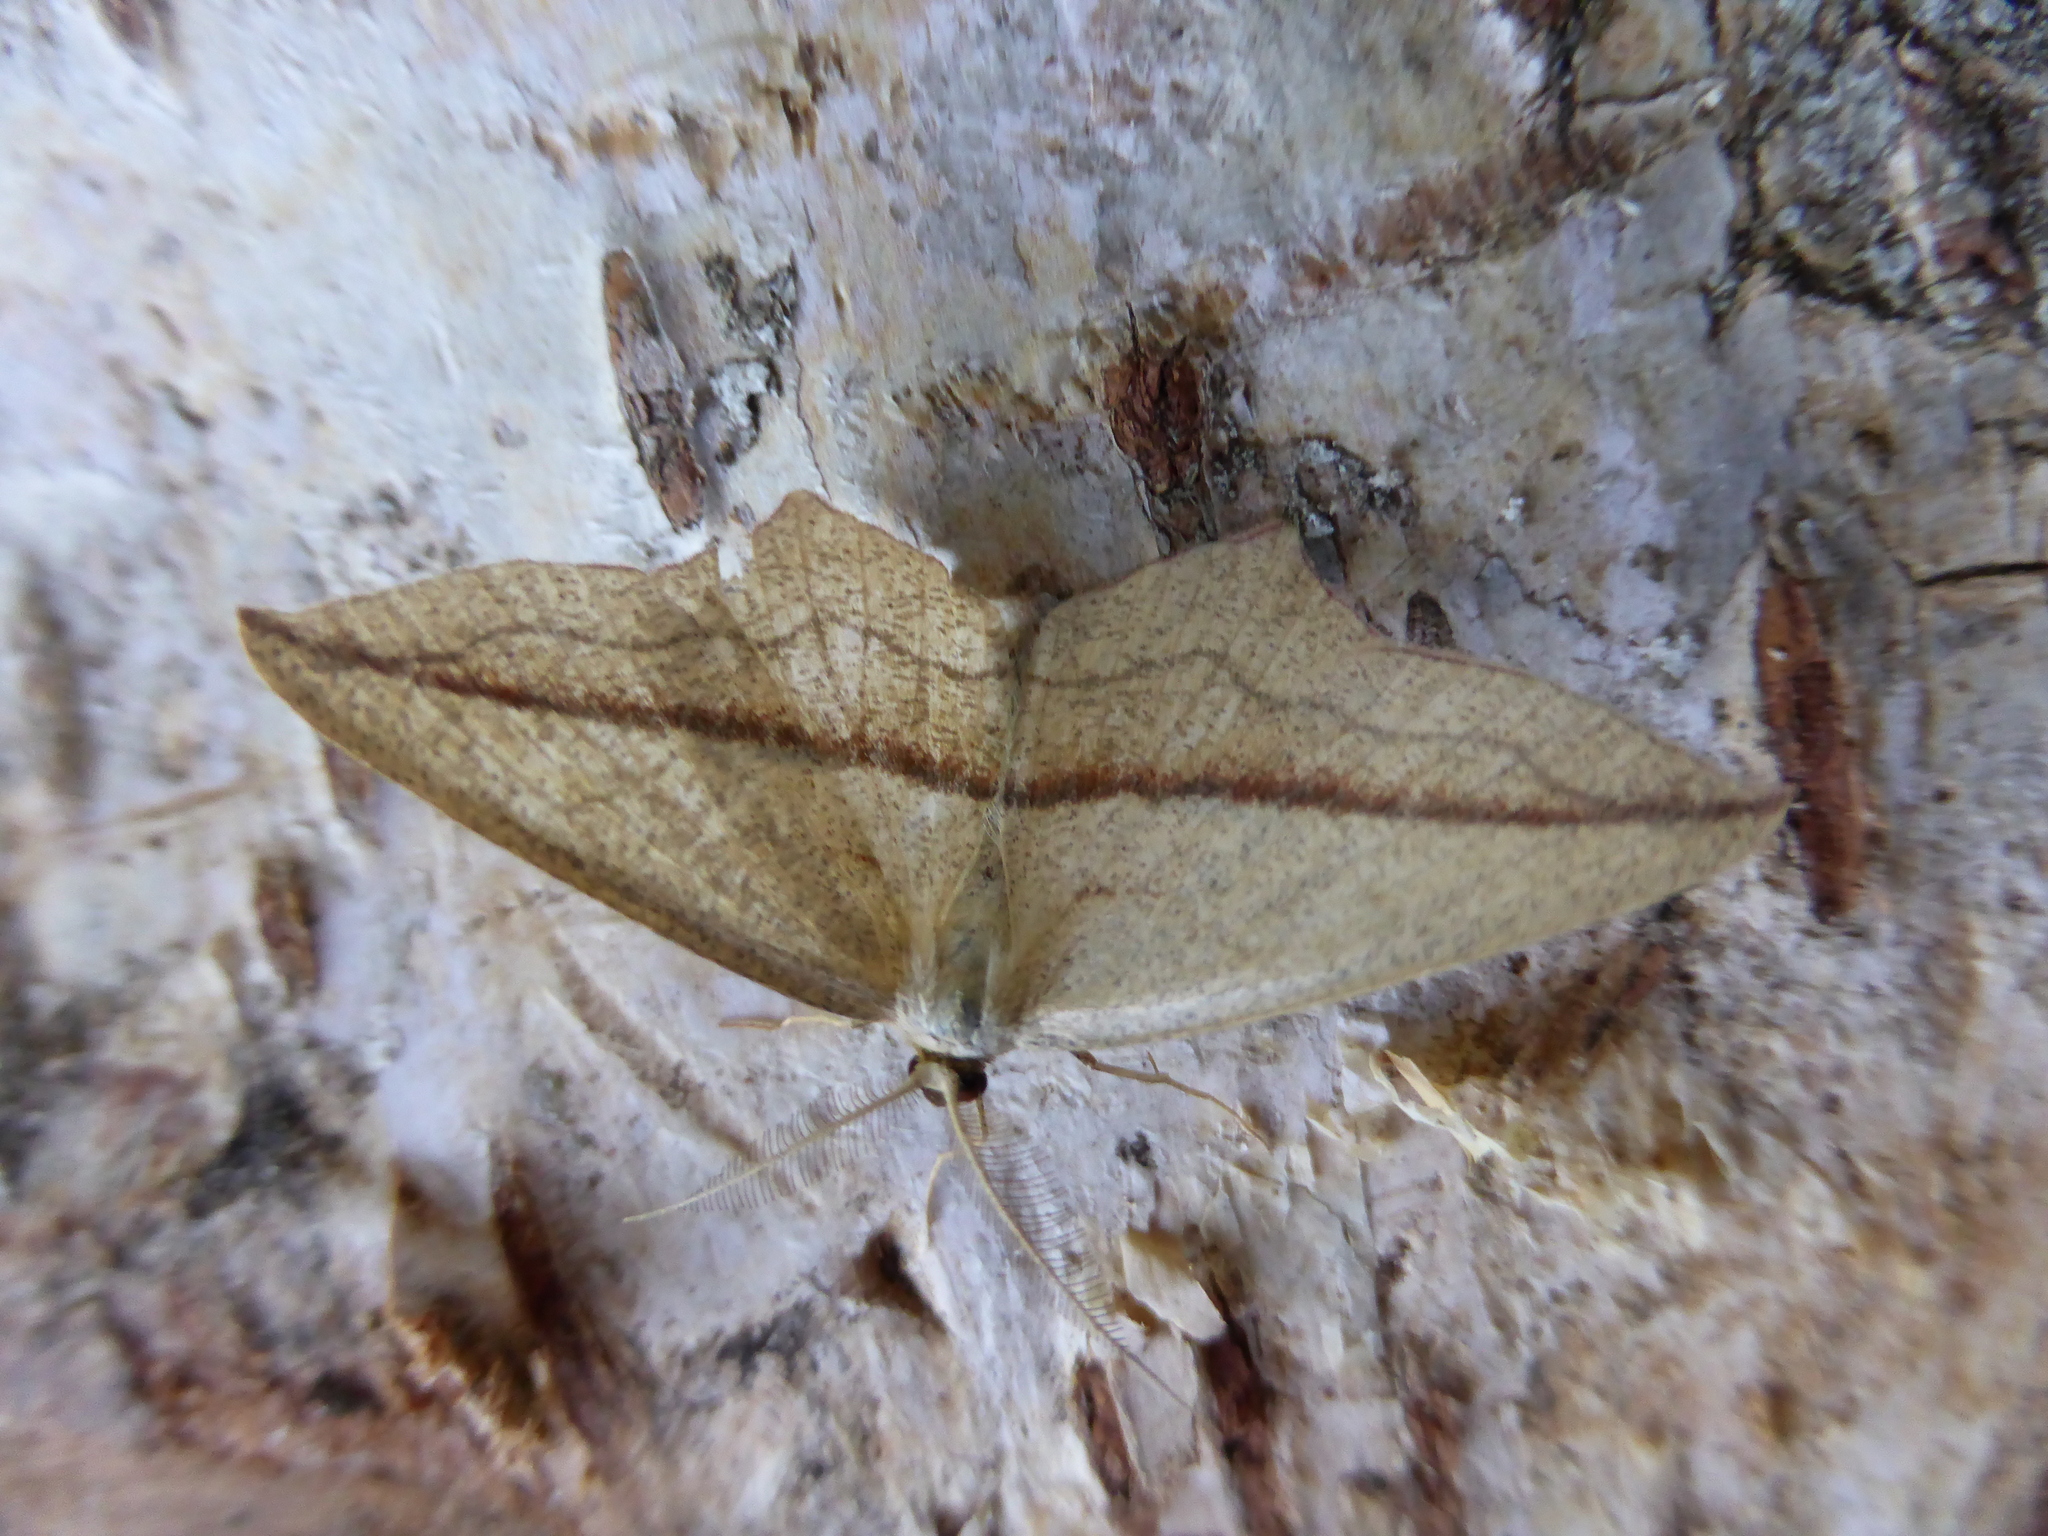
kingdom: Animalia
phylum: Arthropoda
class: Insecta
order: Lepidoptera
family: Geometridae
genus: Timandra
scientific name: Timandra comae
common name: Blood-vein
